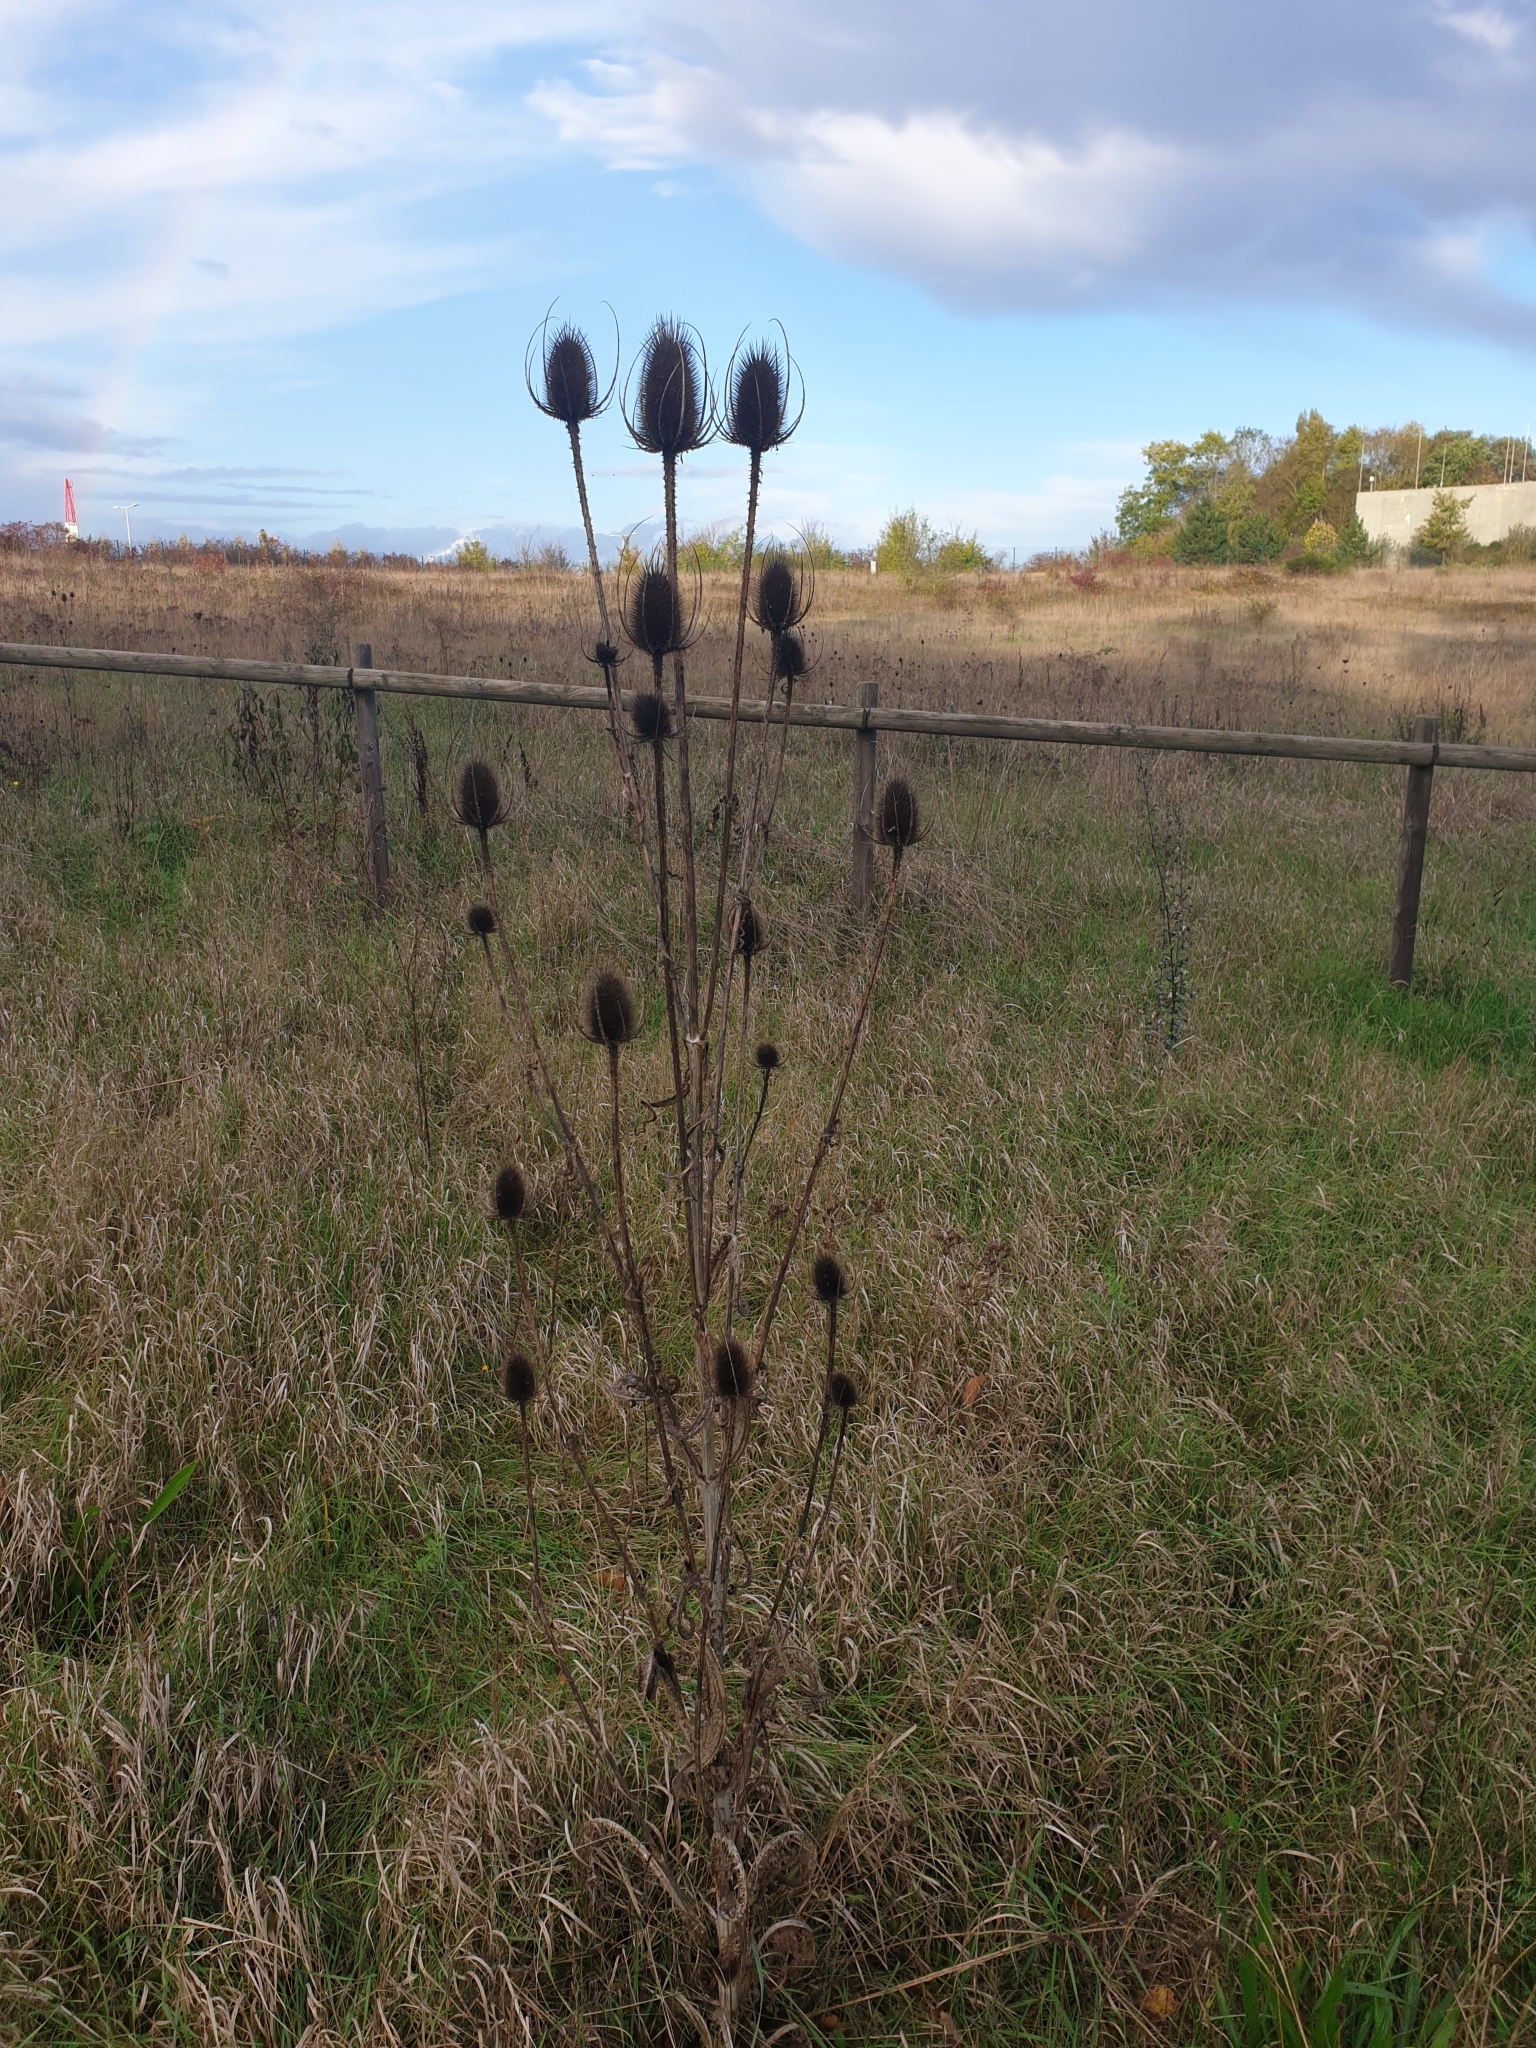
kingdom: Plantae
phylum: Tracheophyta
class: Magnoliopsida
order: Dipsacales
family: Caprifoliaceae
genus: Dipsacus
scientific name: Dipsacus fullonum
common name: Teasel
